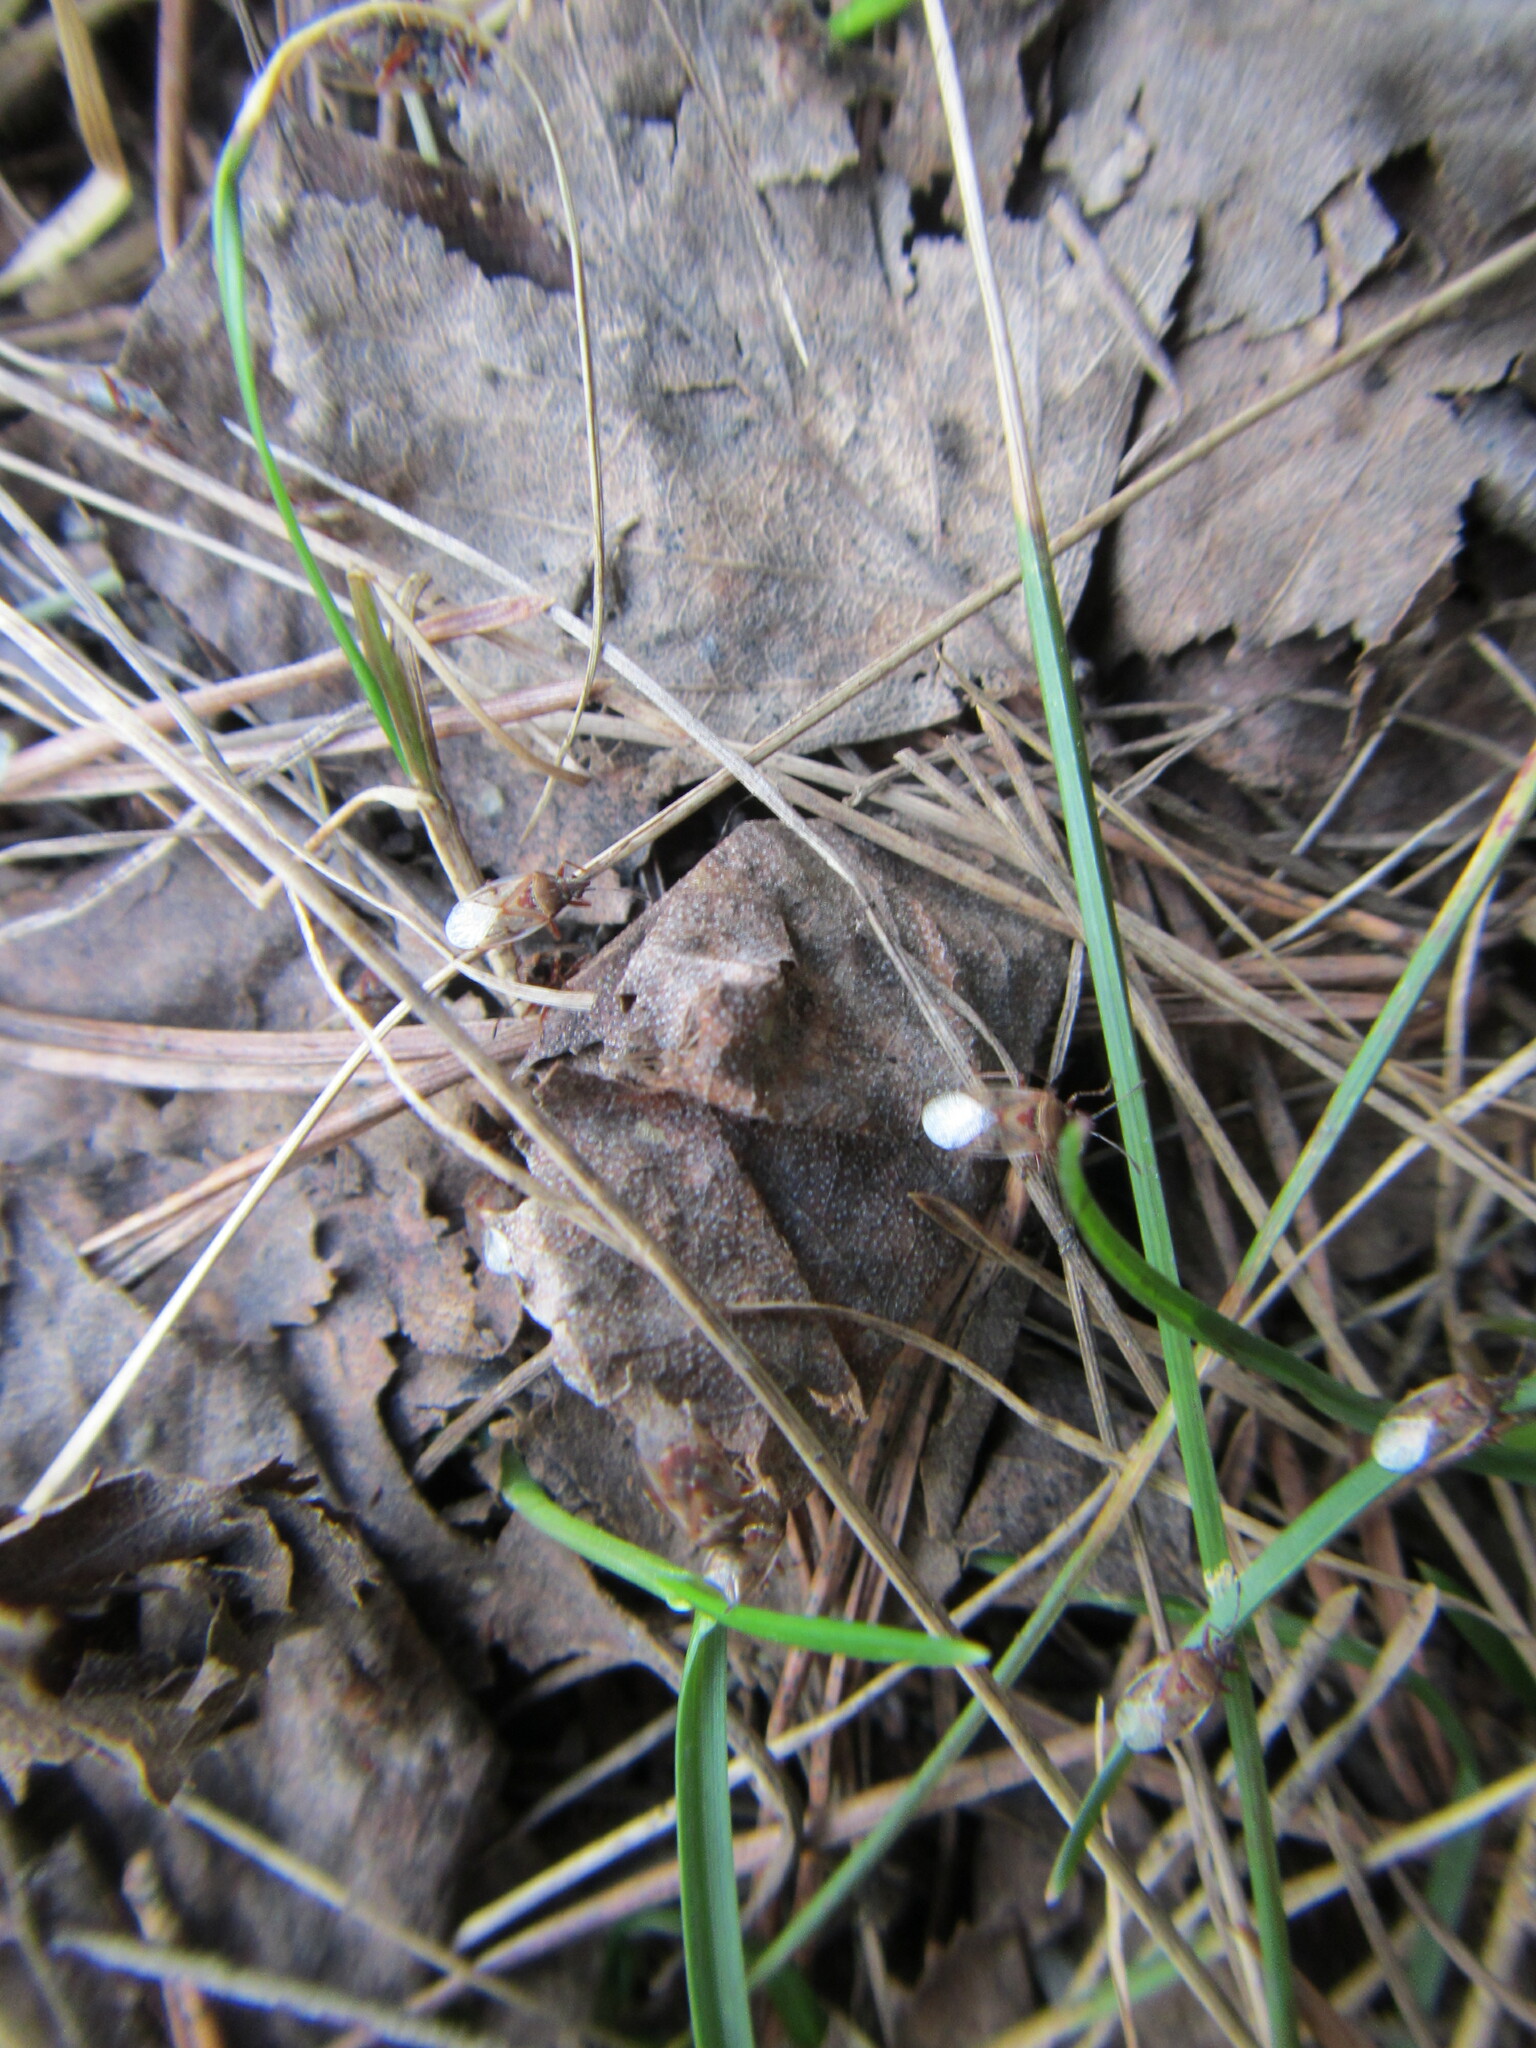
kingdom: Animalia
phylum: Arthropoda
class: Insecta
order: Hemiptera
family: Lygaeidae
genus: Kleidocerys
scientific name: Kleidocerys resedae
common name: Birch catkin bug
